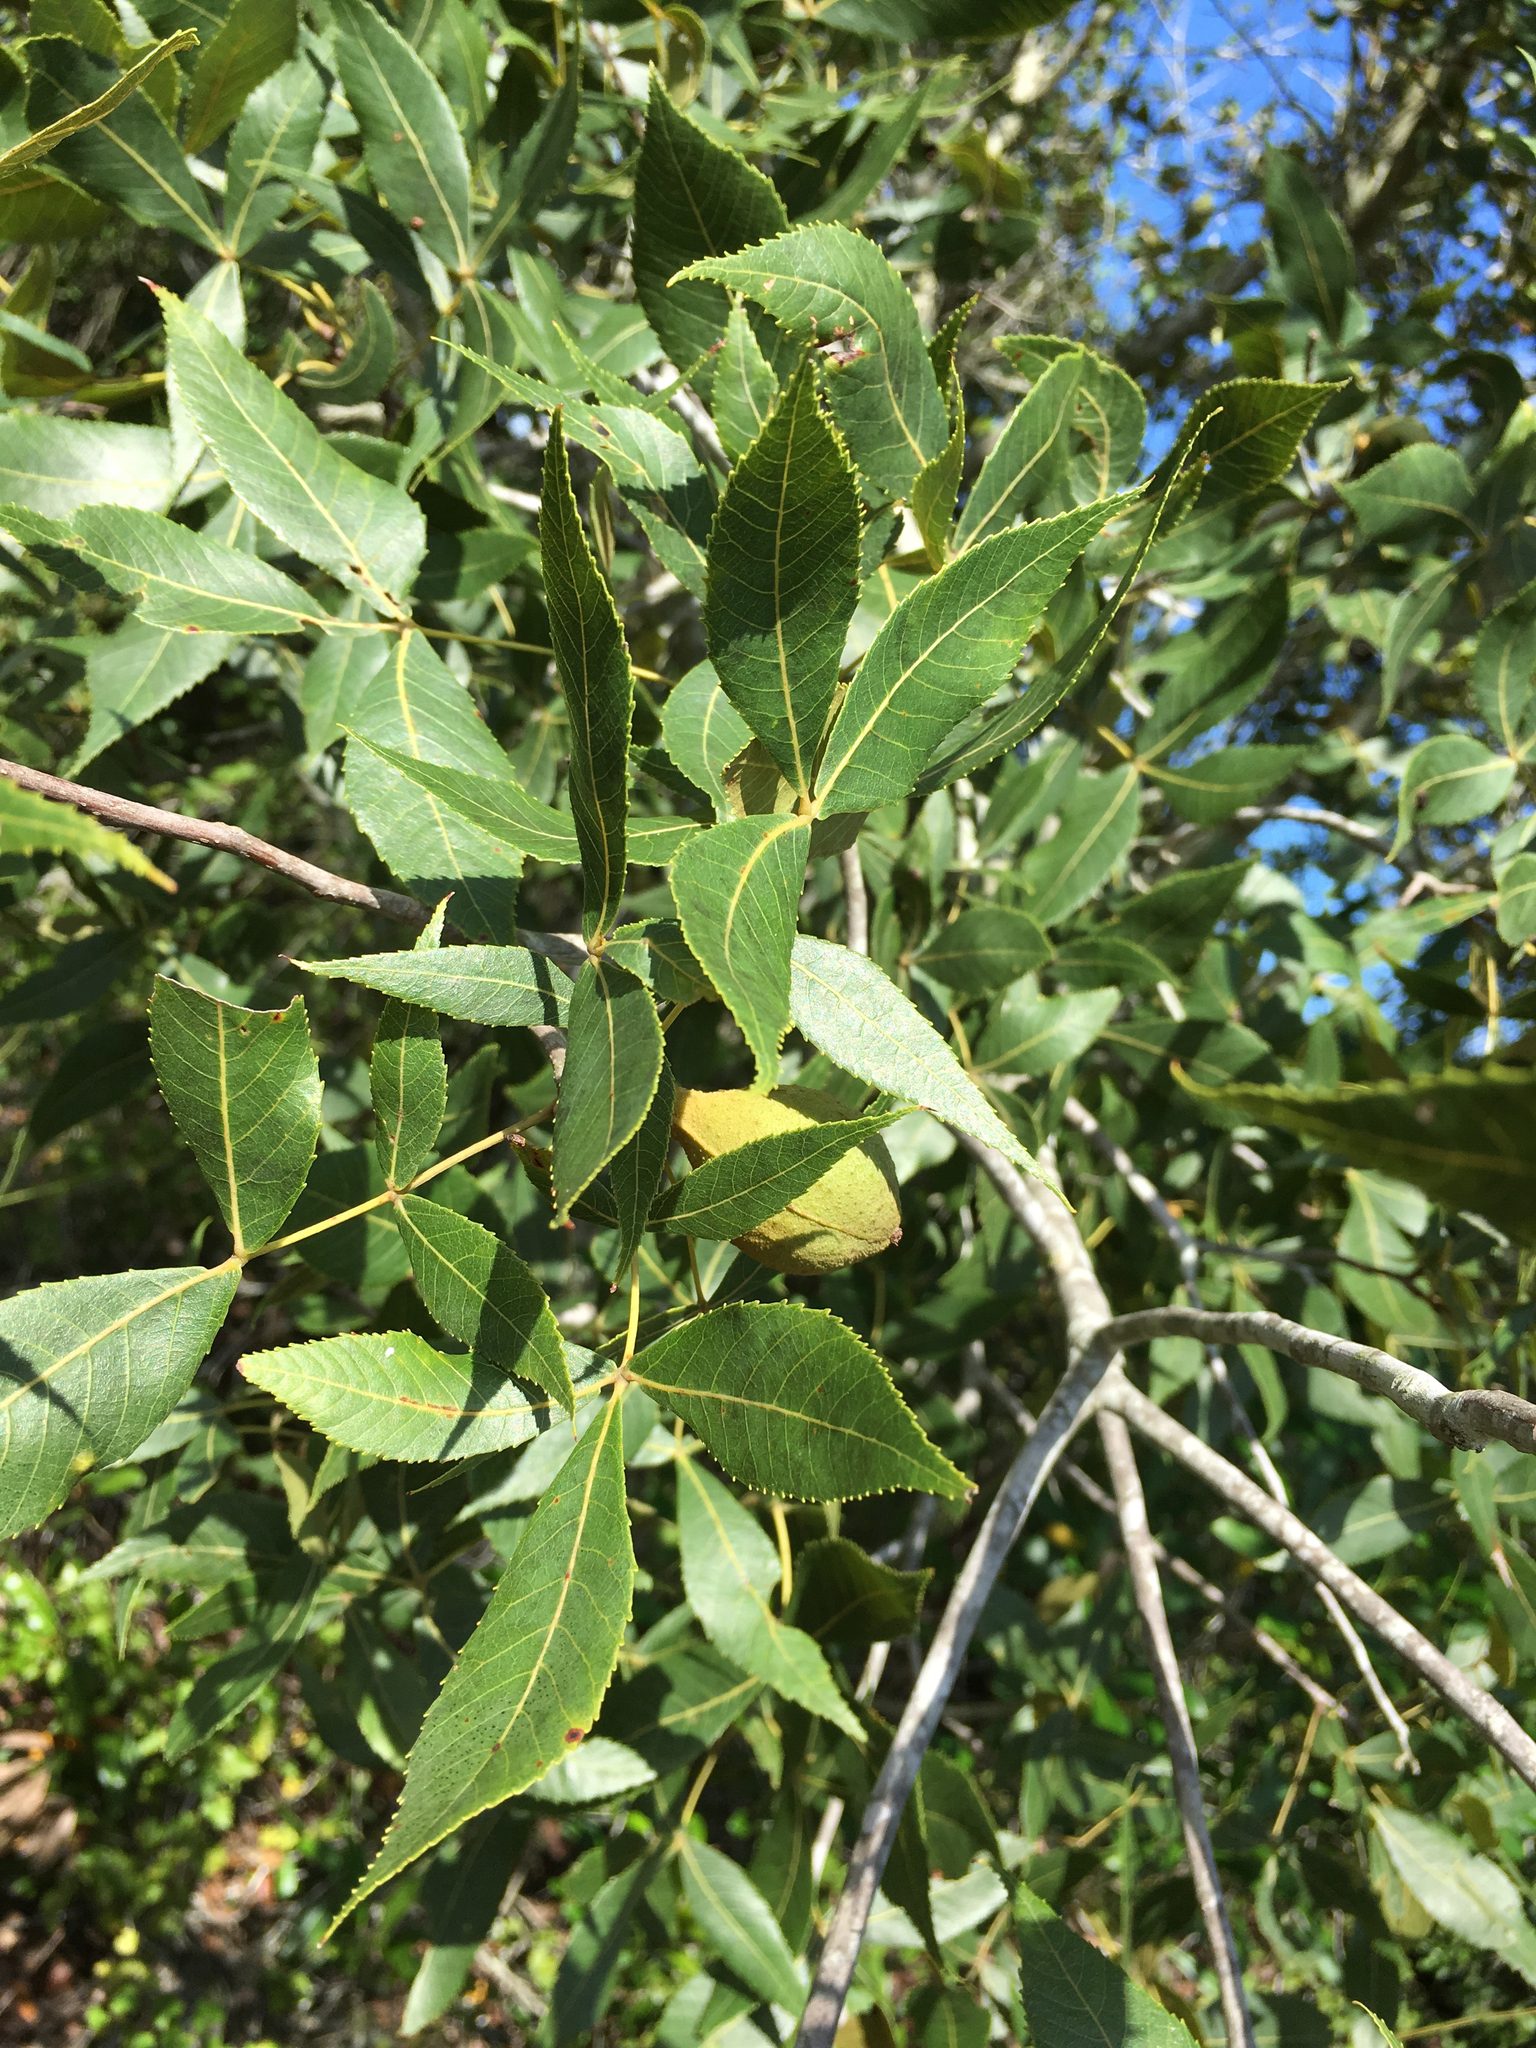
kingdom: Plantae
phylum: Tracheophyta
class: Magnoliopsida
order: Fagales
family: Juglandaceae
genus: Carya
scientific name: Carya floridana
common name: Scrub hickory
